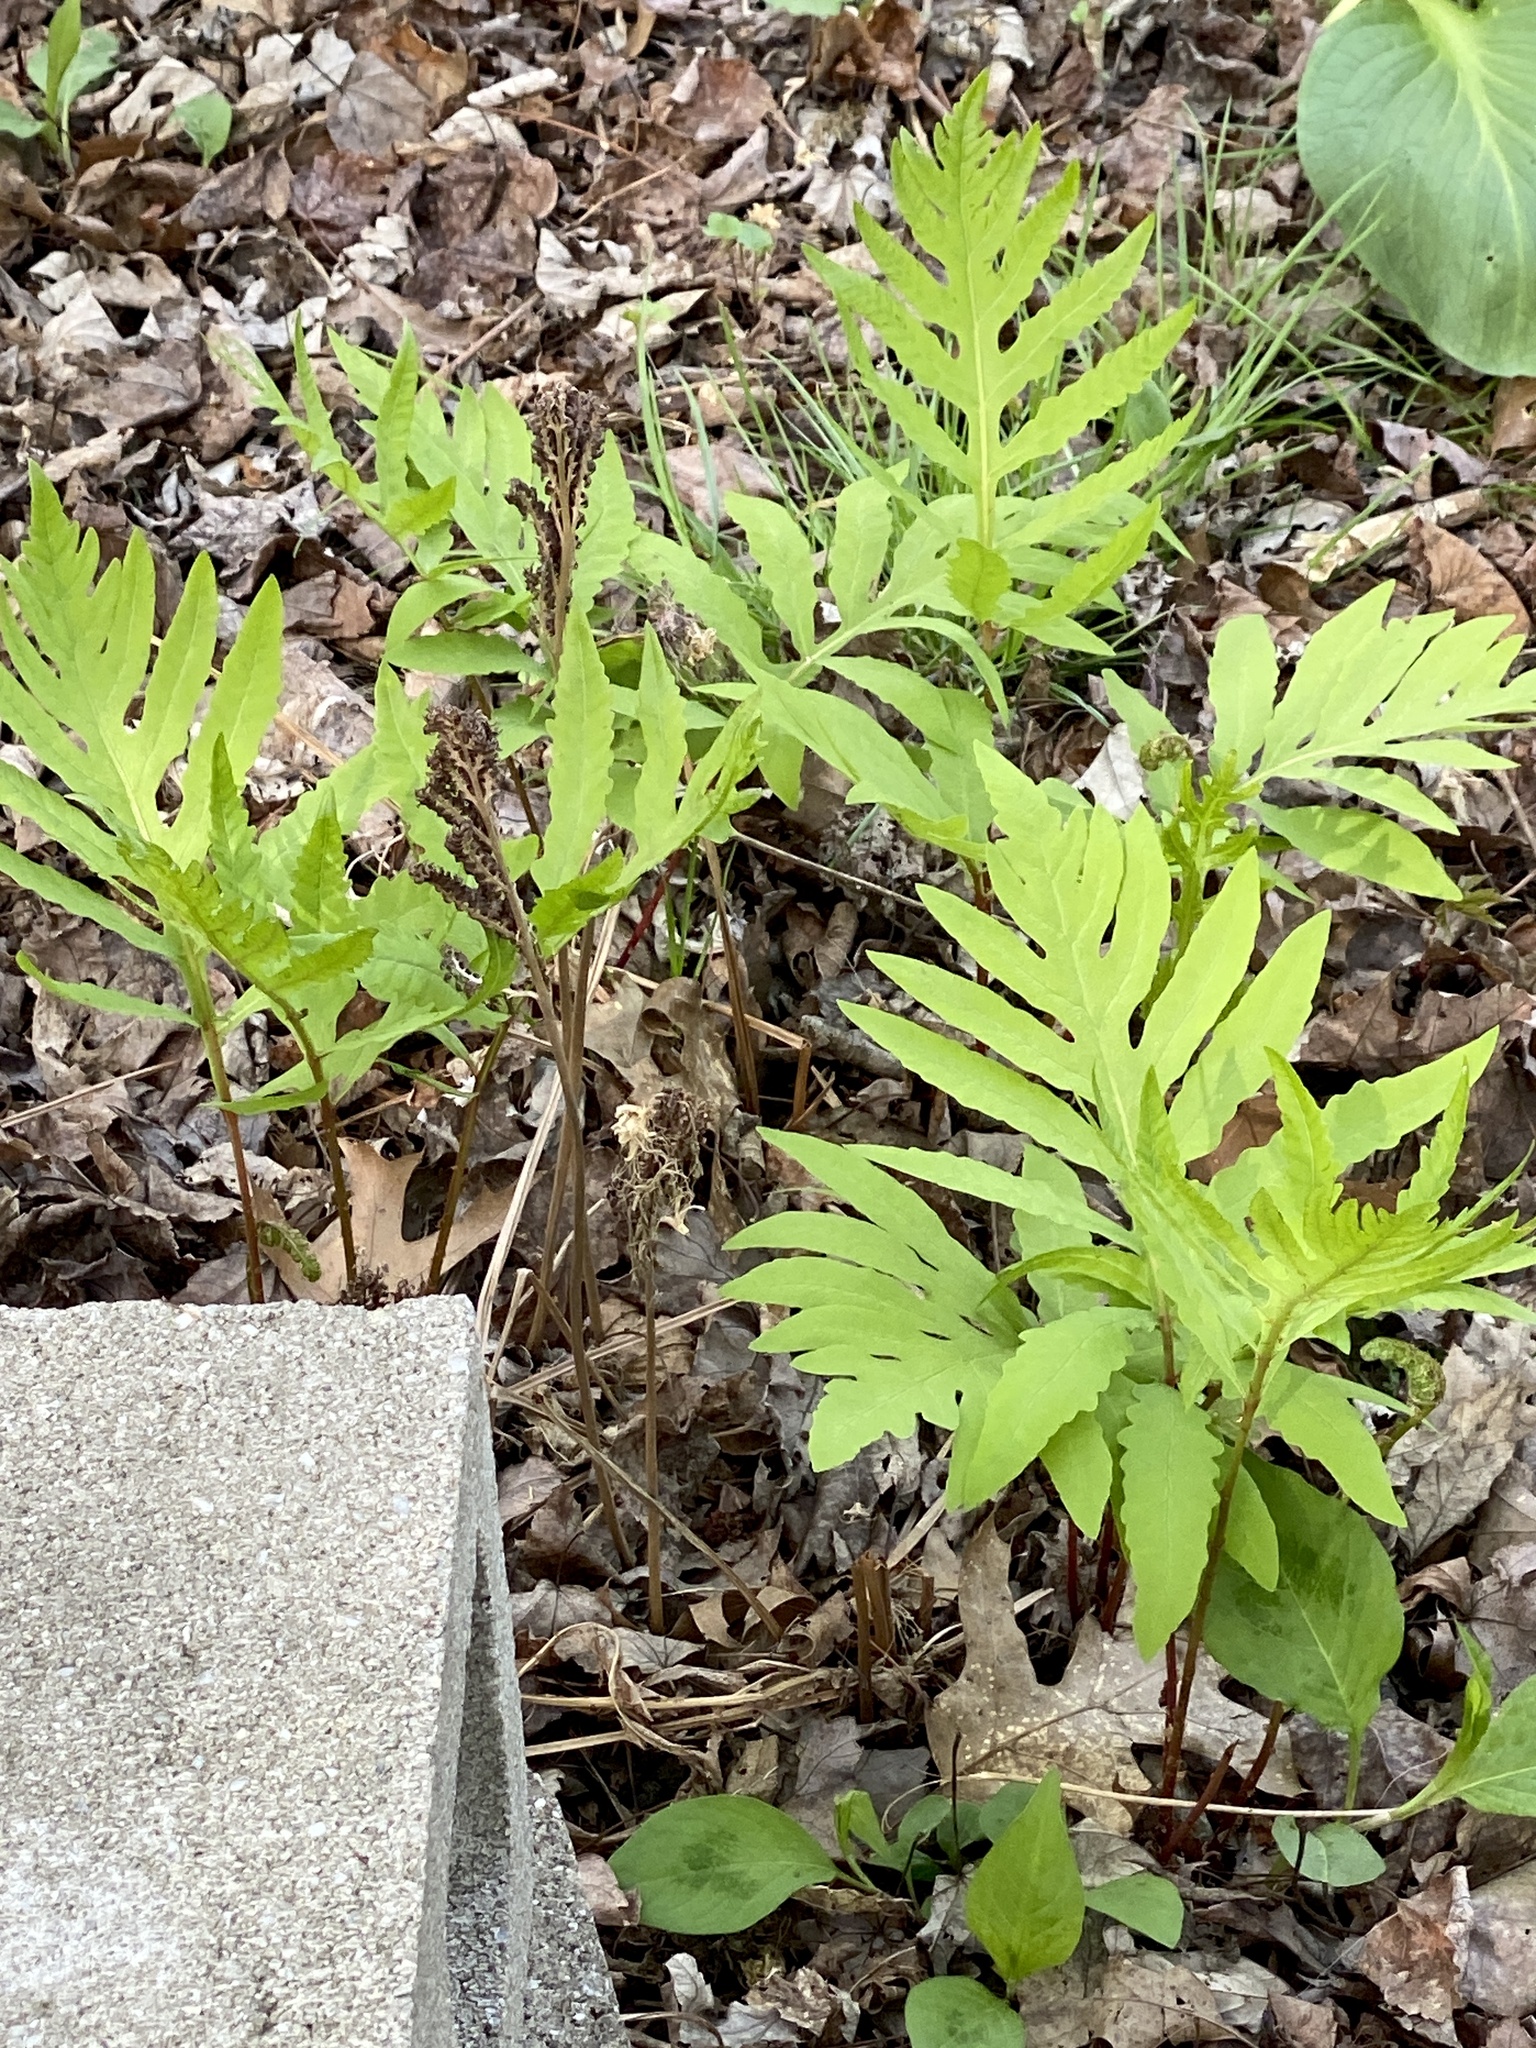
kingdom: Plantae
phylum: Tracheophyta
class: Polypodiopsida
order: Polypodiales
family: Onocleaceae
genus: Onoclea
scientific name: Onoclea sensibilis
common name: Sensitive fern
